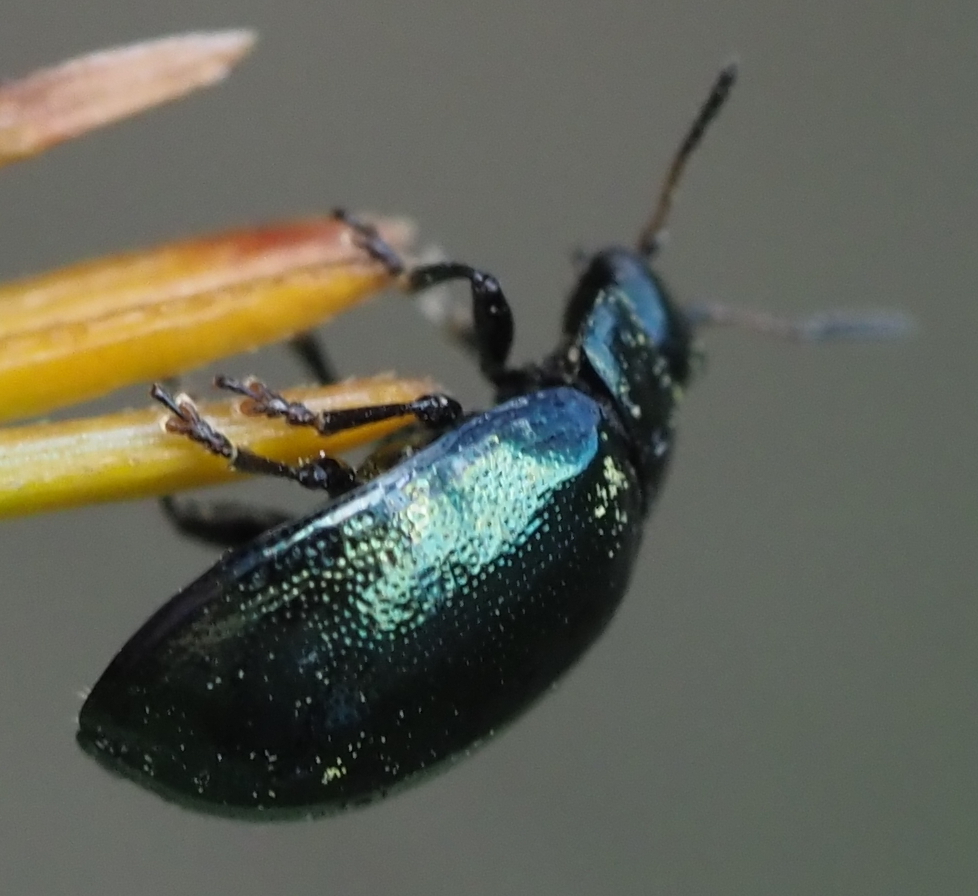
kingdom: Animalia
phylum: Arthropoda
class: Insecta
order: Coleoptera
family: Chrysomelidae
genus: Plagiodera
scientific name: Plagiodera versicolora
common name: Imported willow leaf beetle
